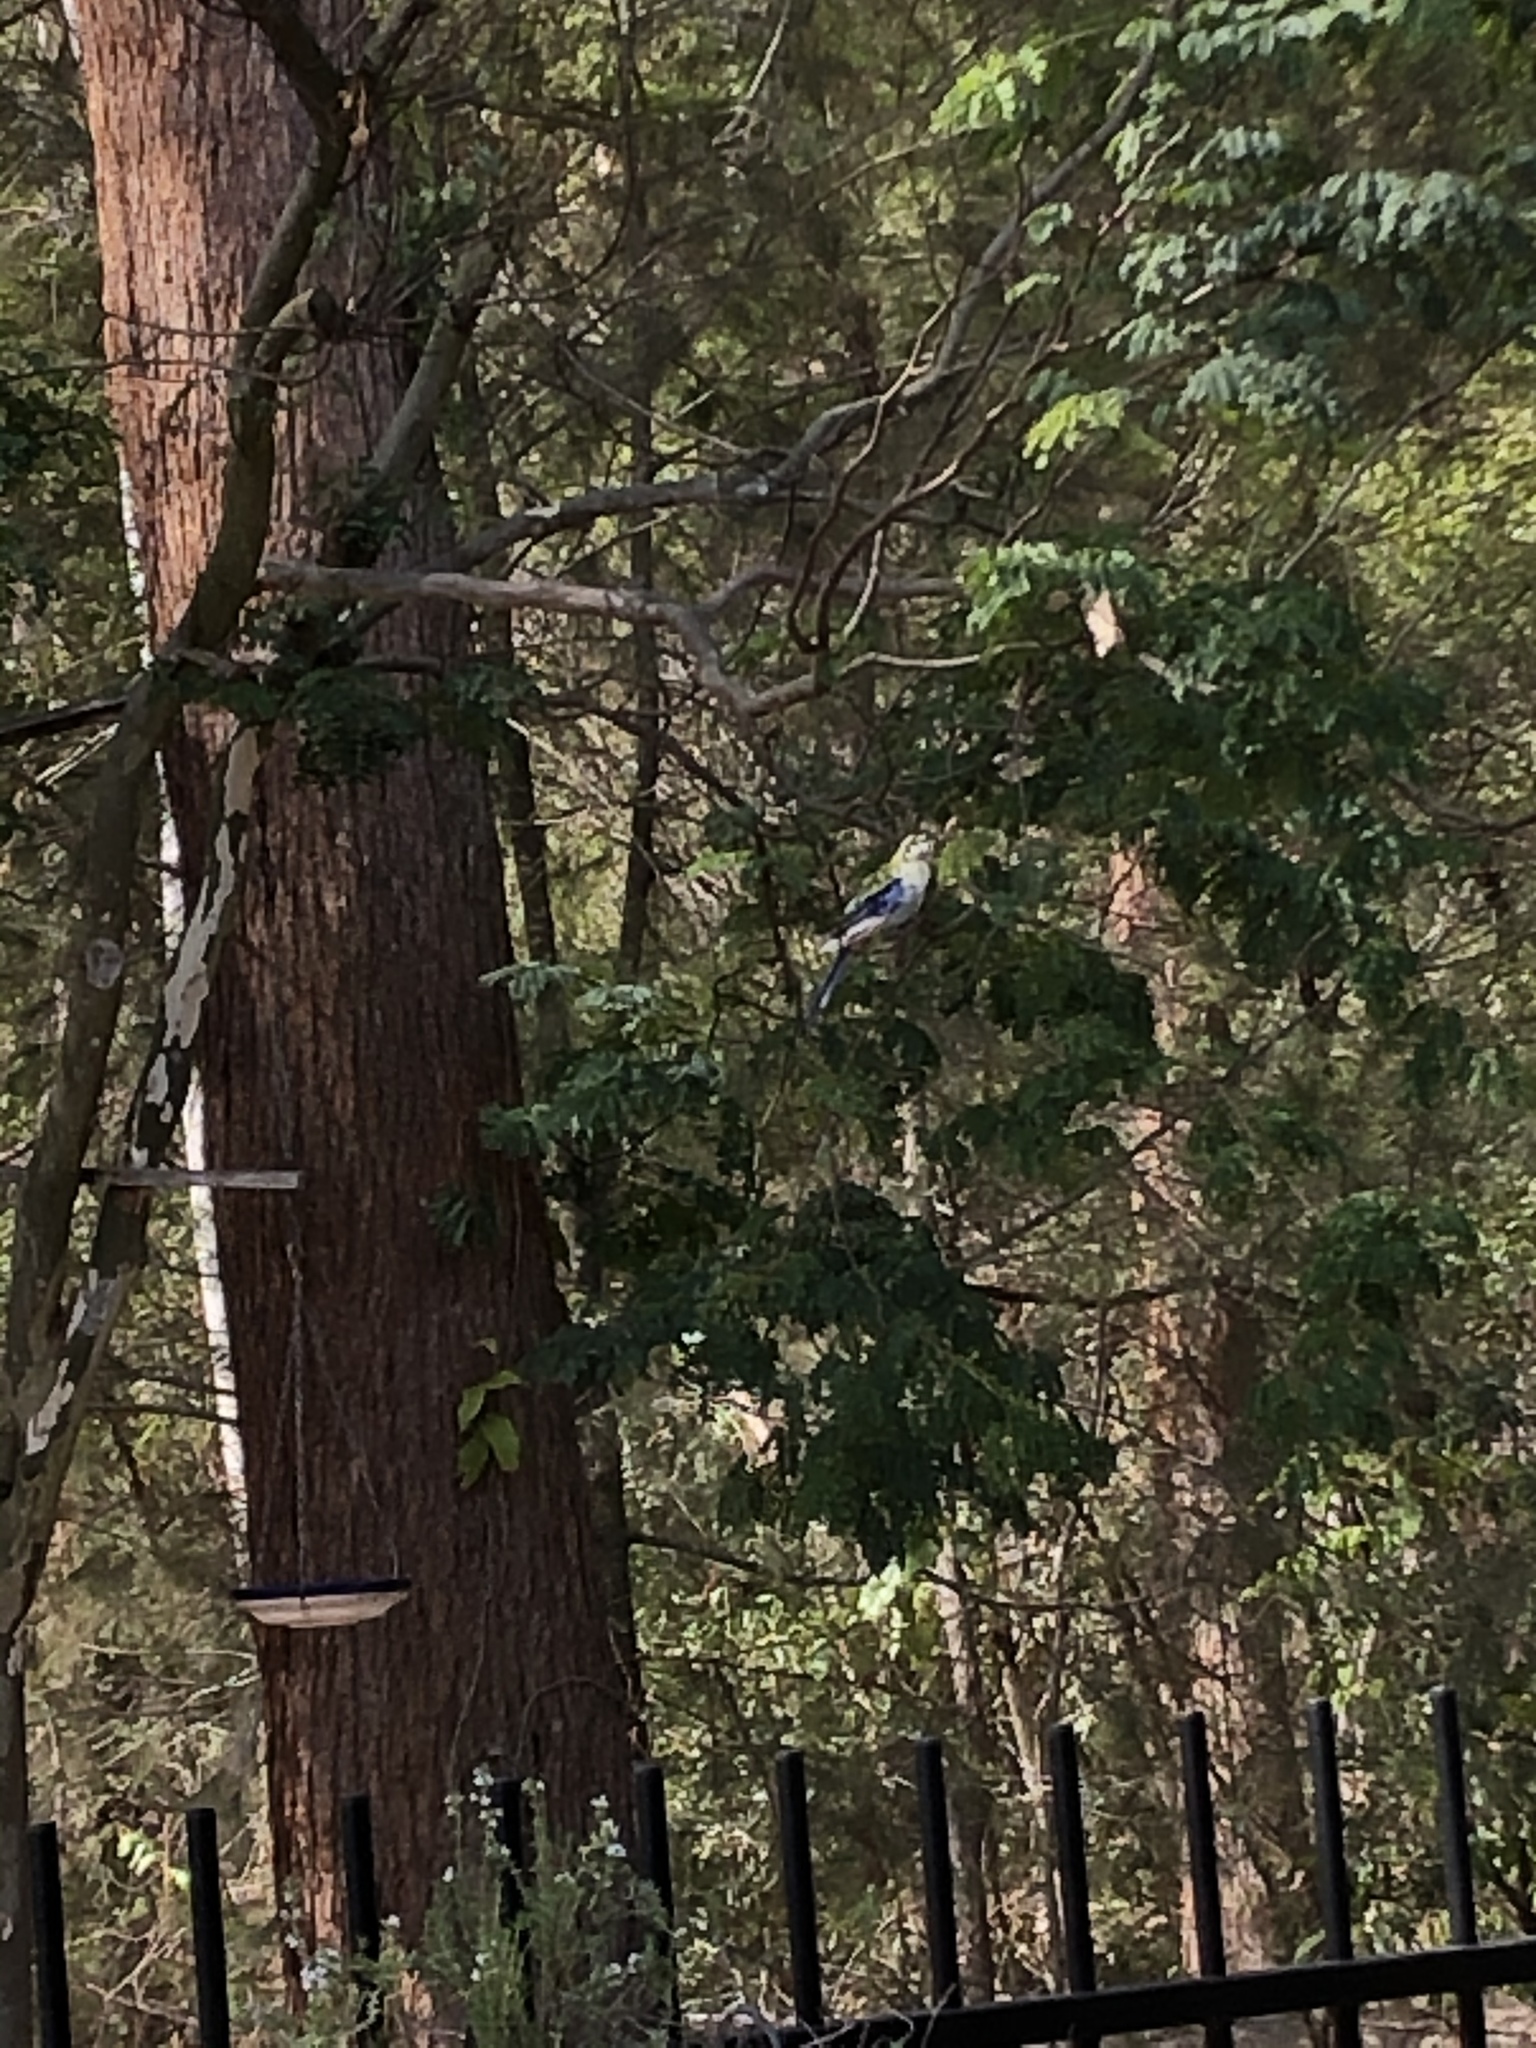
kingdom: Animalia
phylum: Chordata
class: Aves
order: Psittaciformes
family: Psittacidae
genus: Platycercus
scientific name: Platycercus adscitus
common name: Pale-headed rosella
